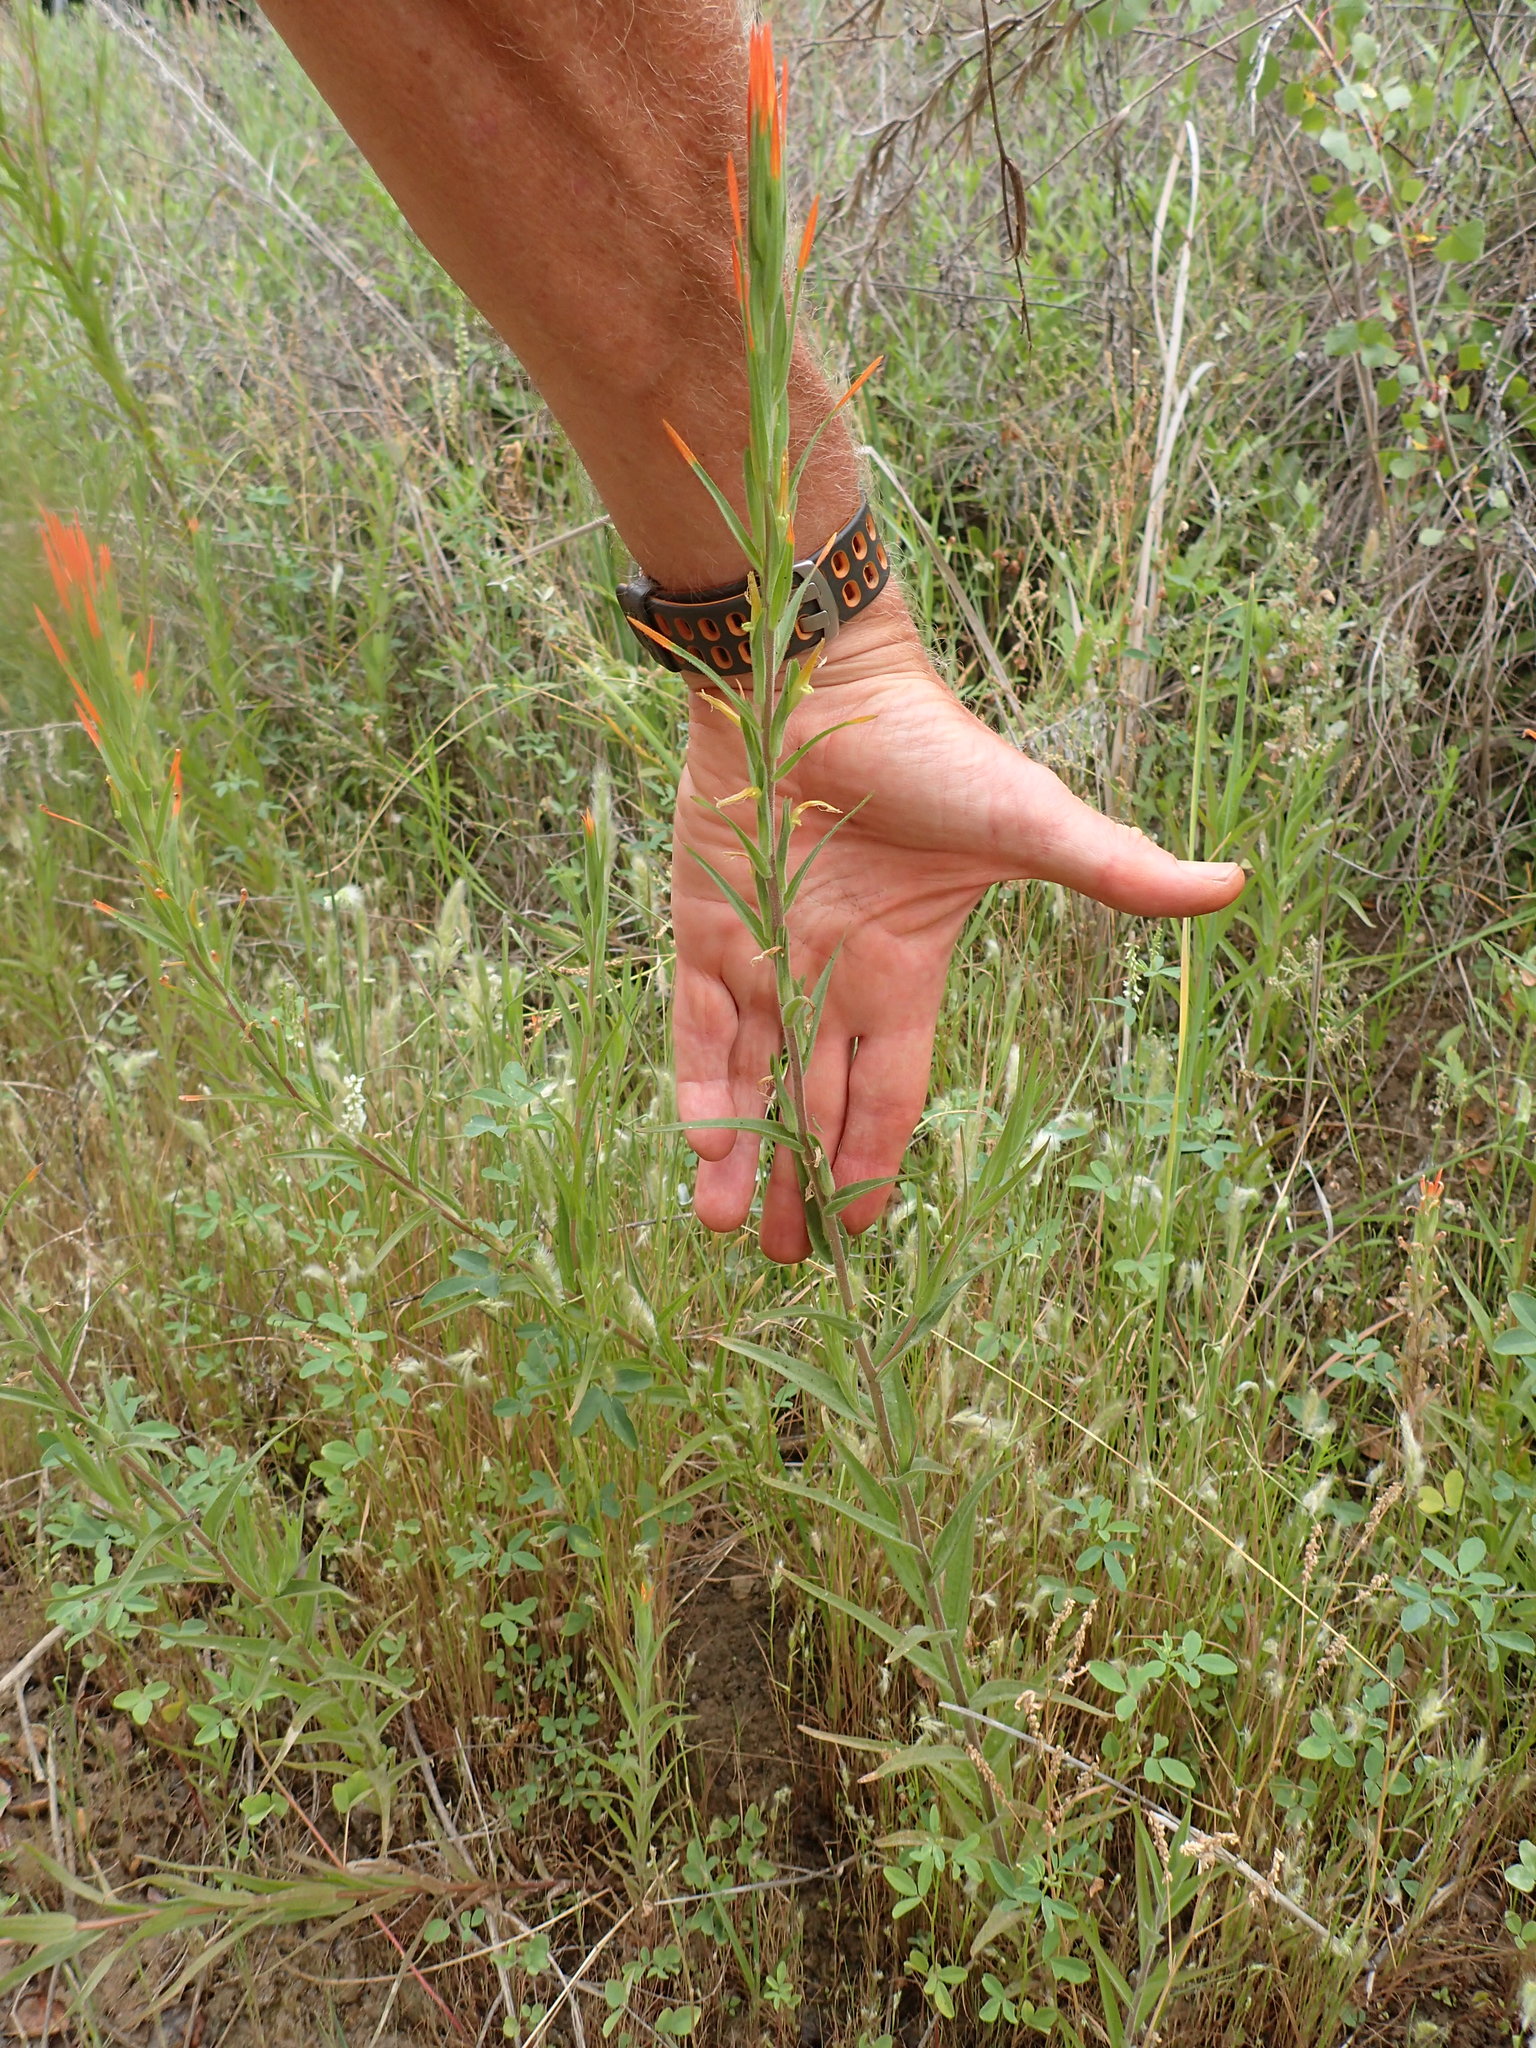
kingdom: Plantae
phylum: Tracheophyta
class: Magnoliopsida
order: Lamiales
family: Orobanchaceae
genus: Castilleja
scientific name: Castilleja minor
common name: Seep paintbrush
